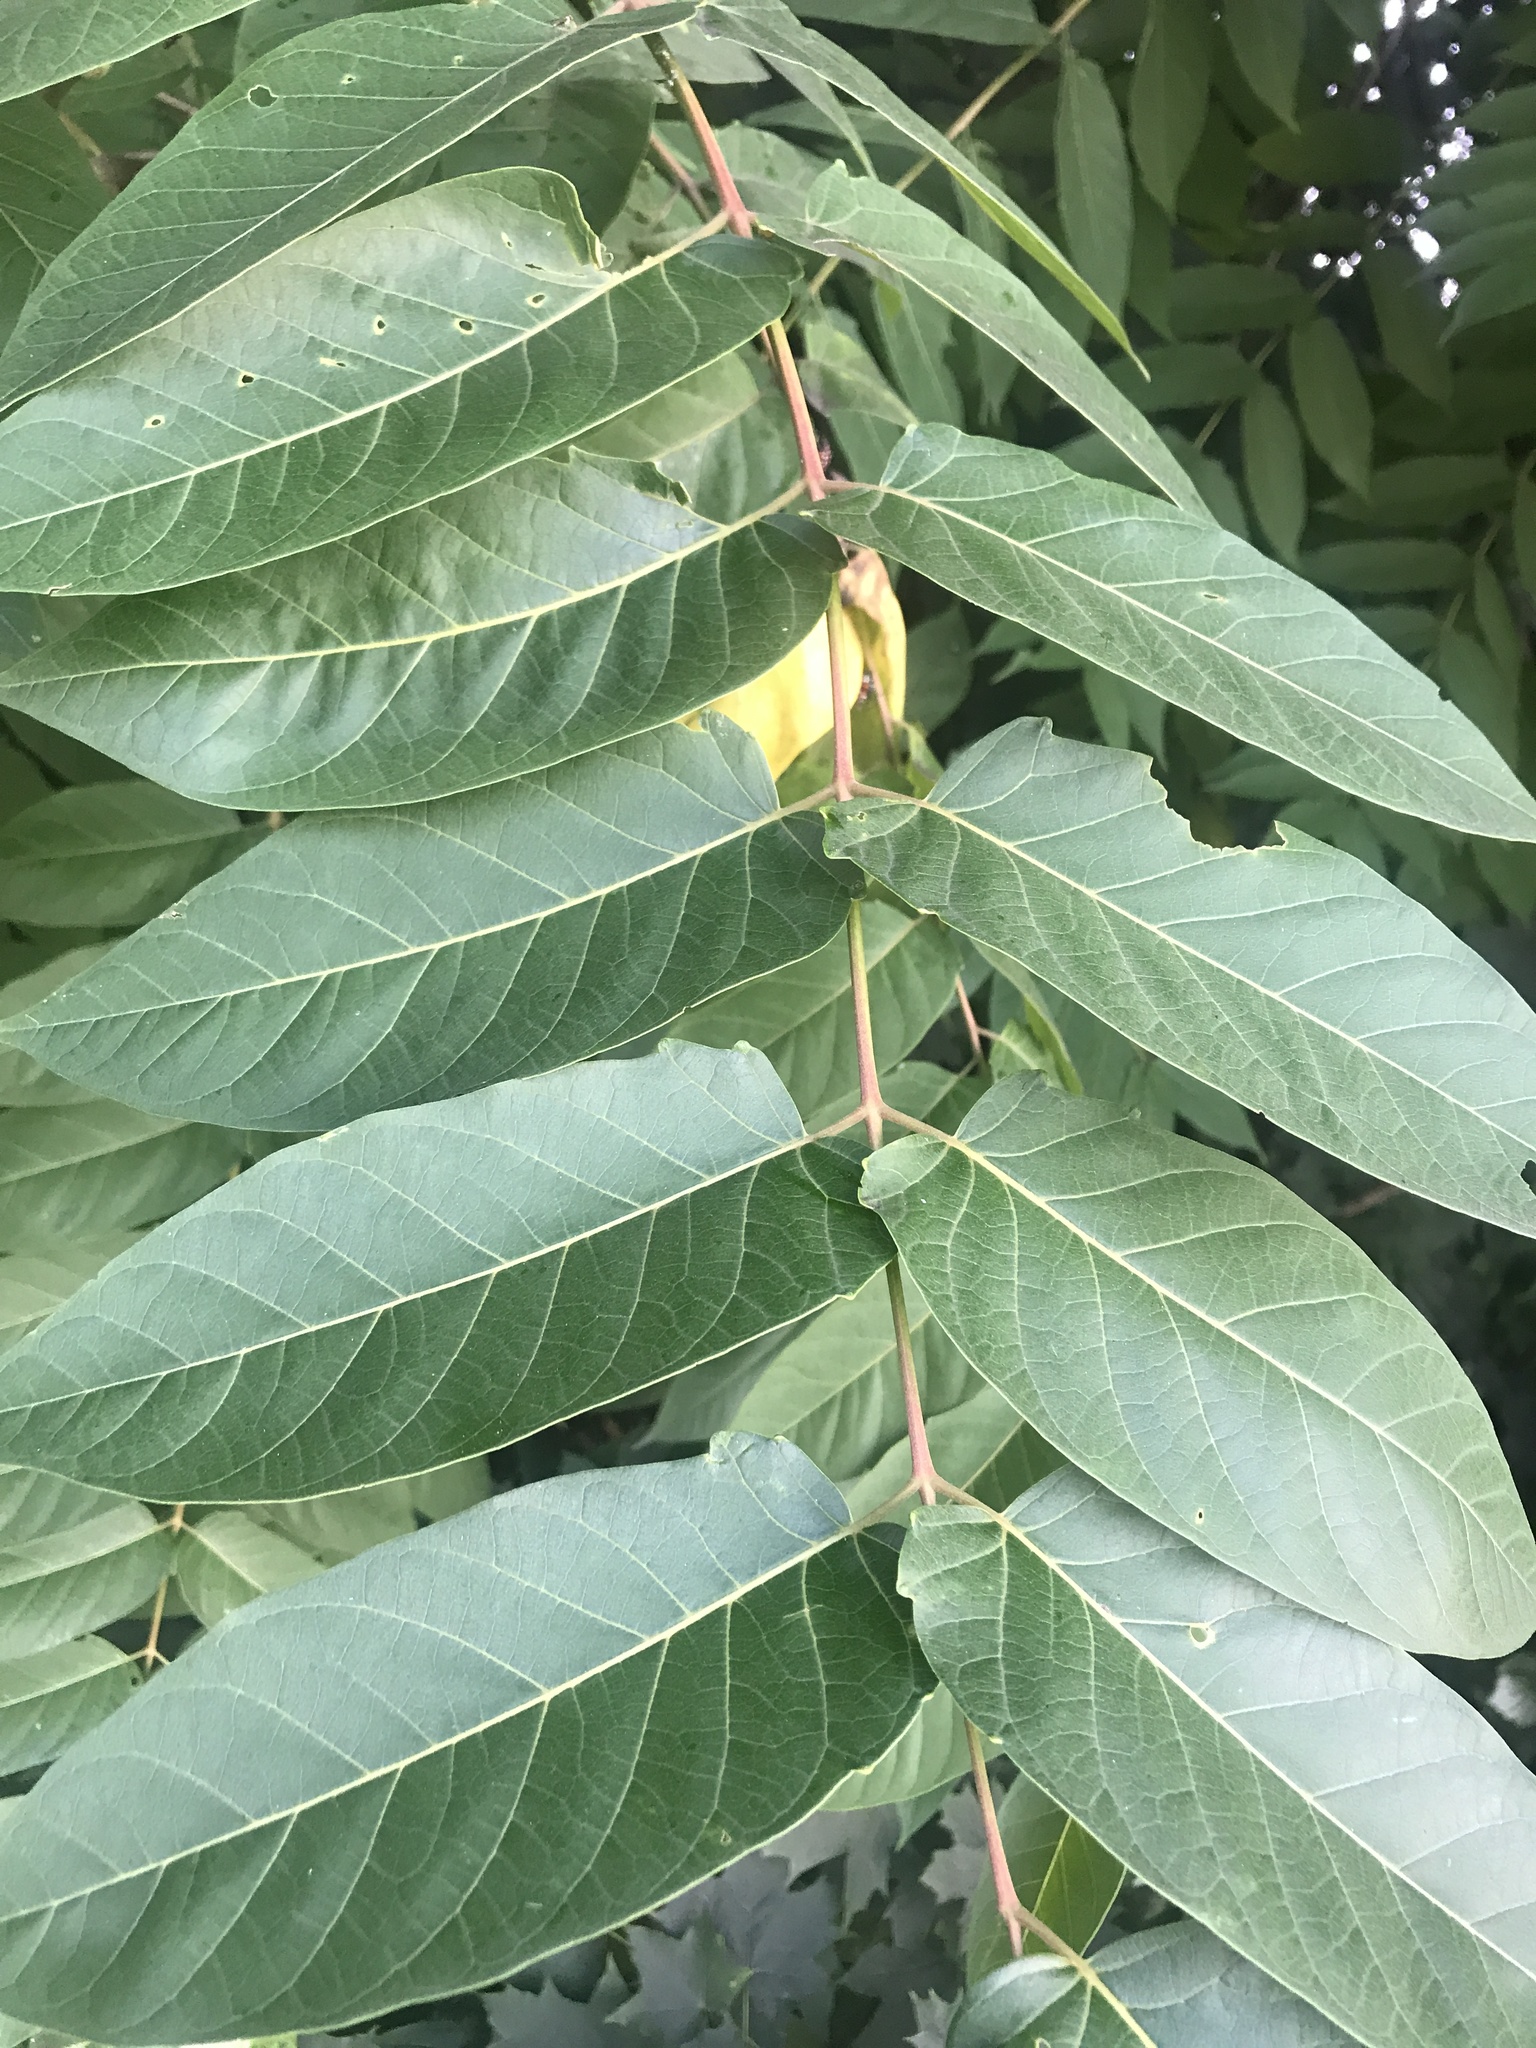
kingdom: Plantae
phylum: Tracheophyta
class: Magnoliopsida
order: Sapindales
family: Simaroubaceae
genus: Ailanthus
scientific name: Ailanthus altissima
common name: Tree-of-heaven
